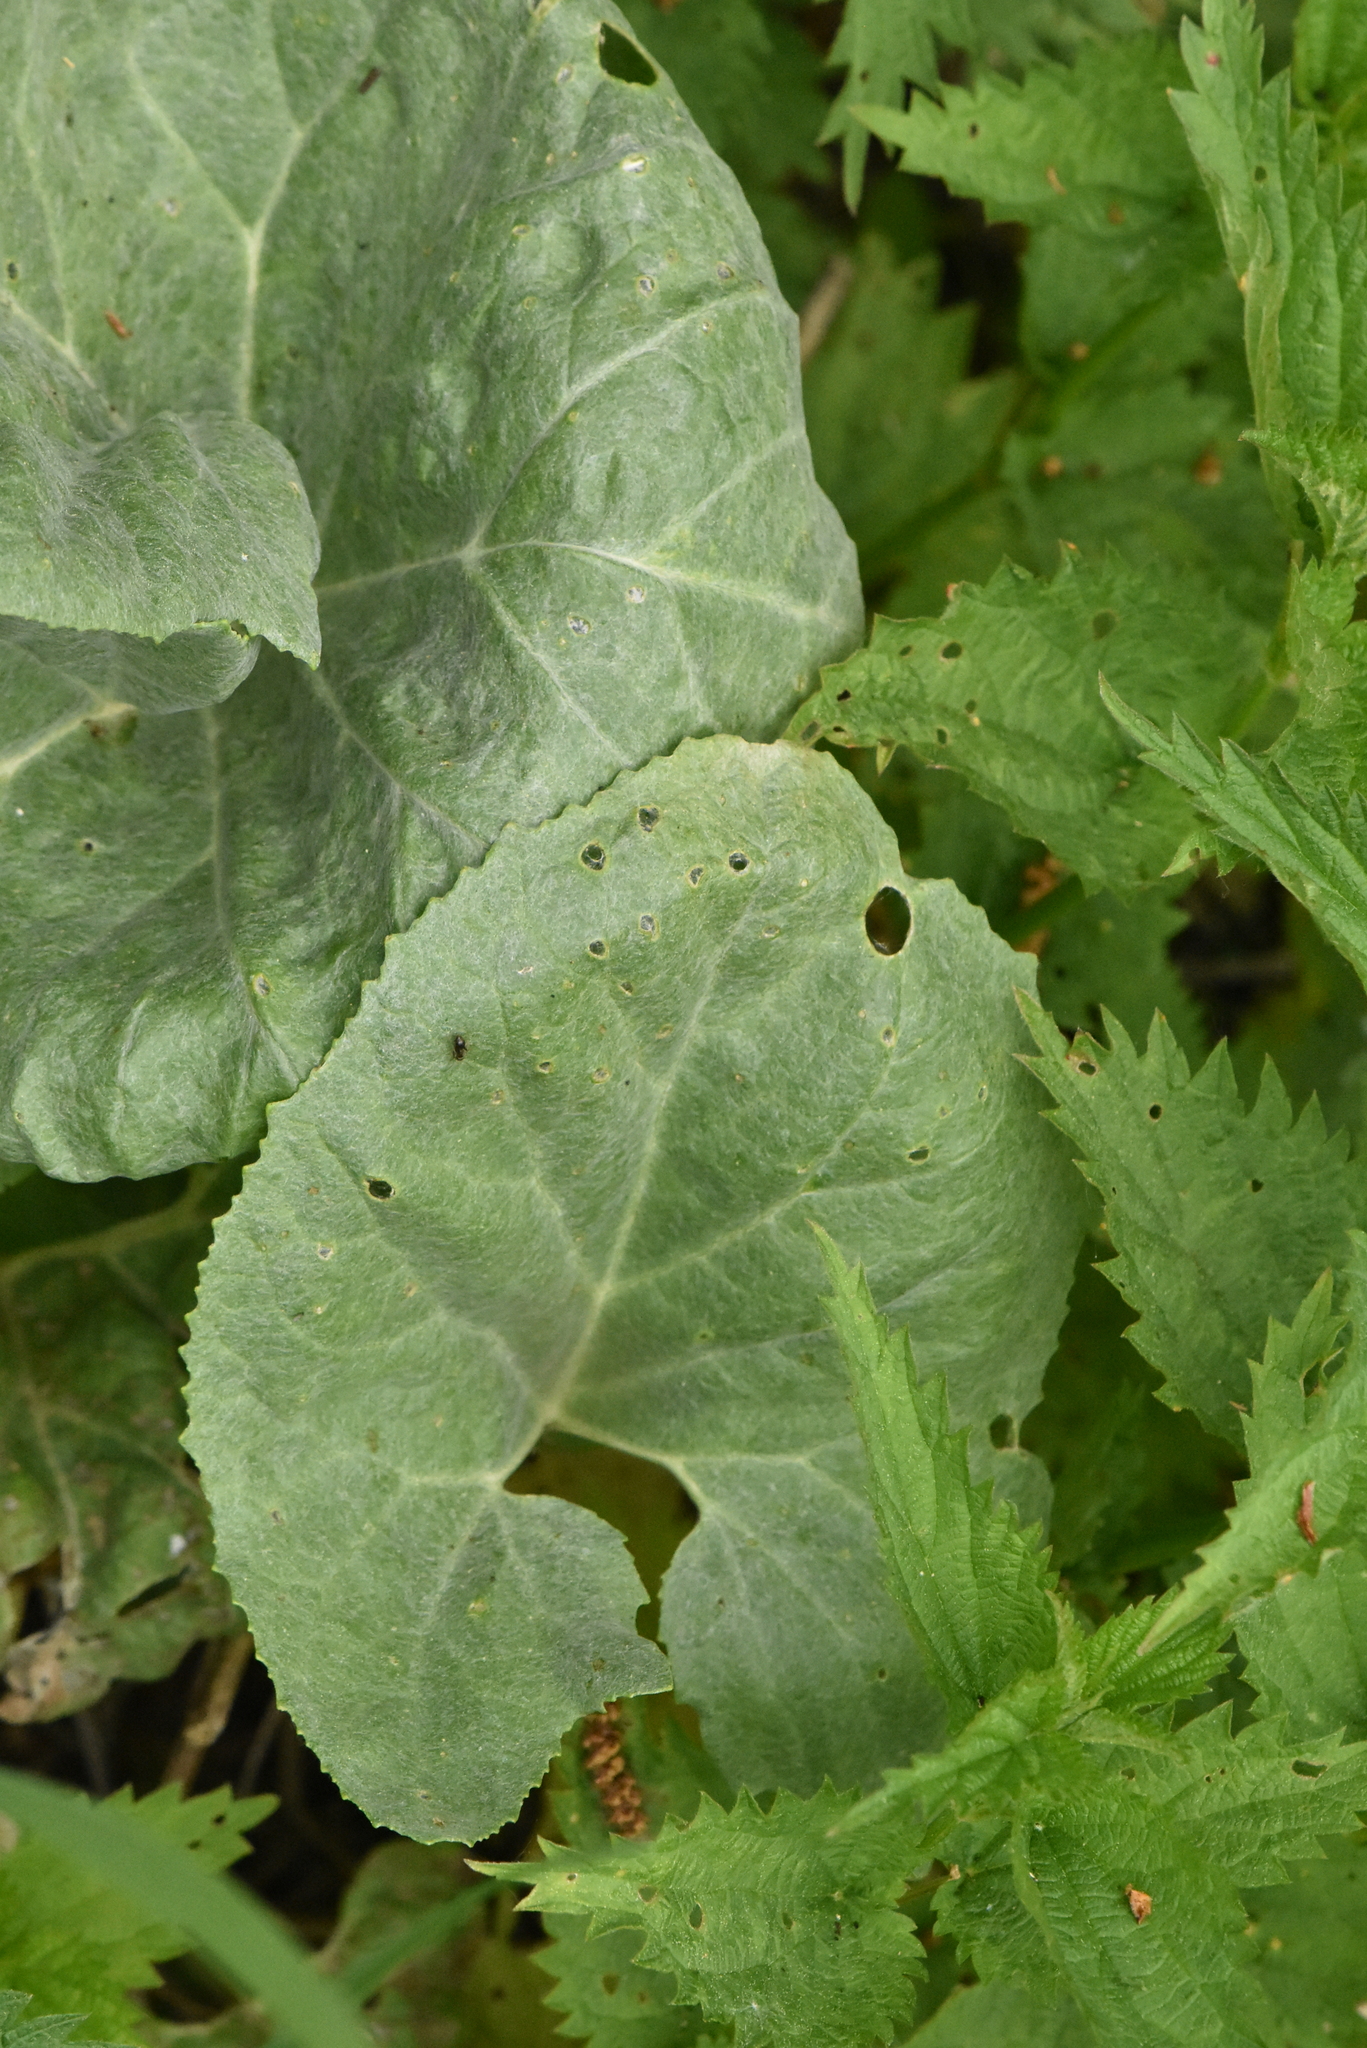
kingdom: Plantae
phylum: Tracheophyta
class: Magnoliopsida
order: Asterales
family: Asteraceae
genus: Petasites
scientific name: Petasites spurius
